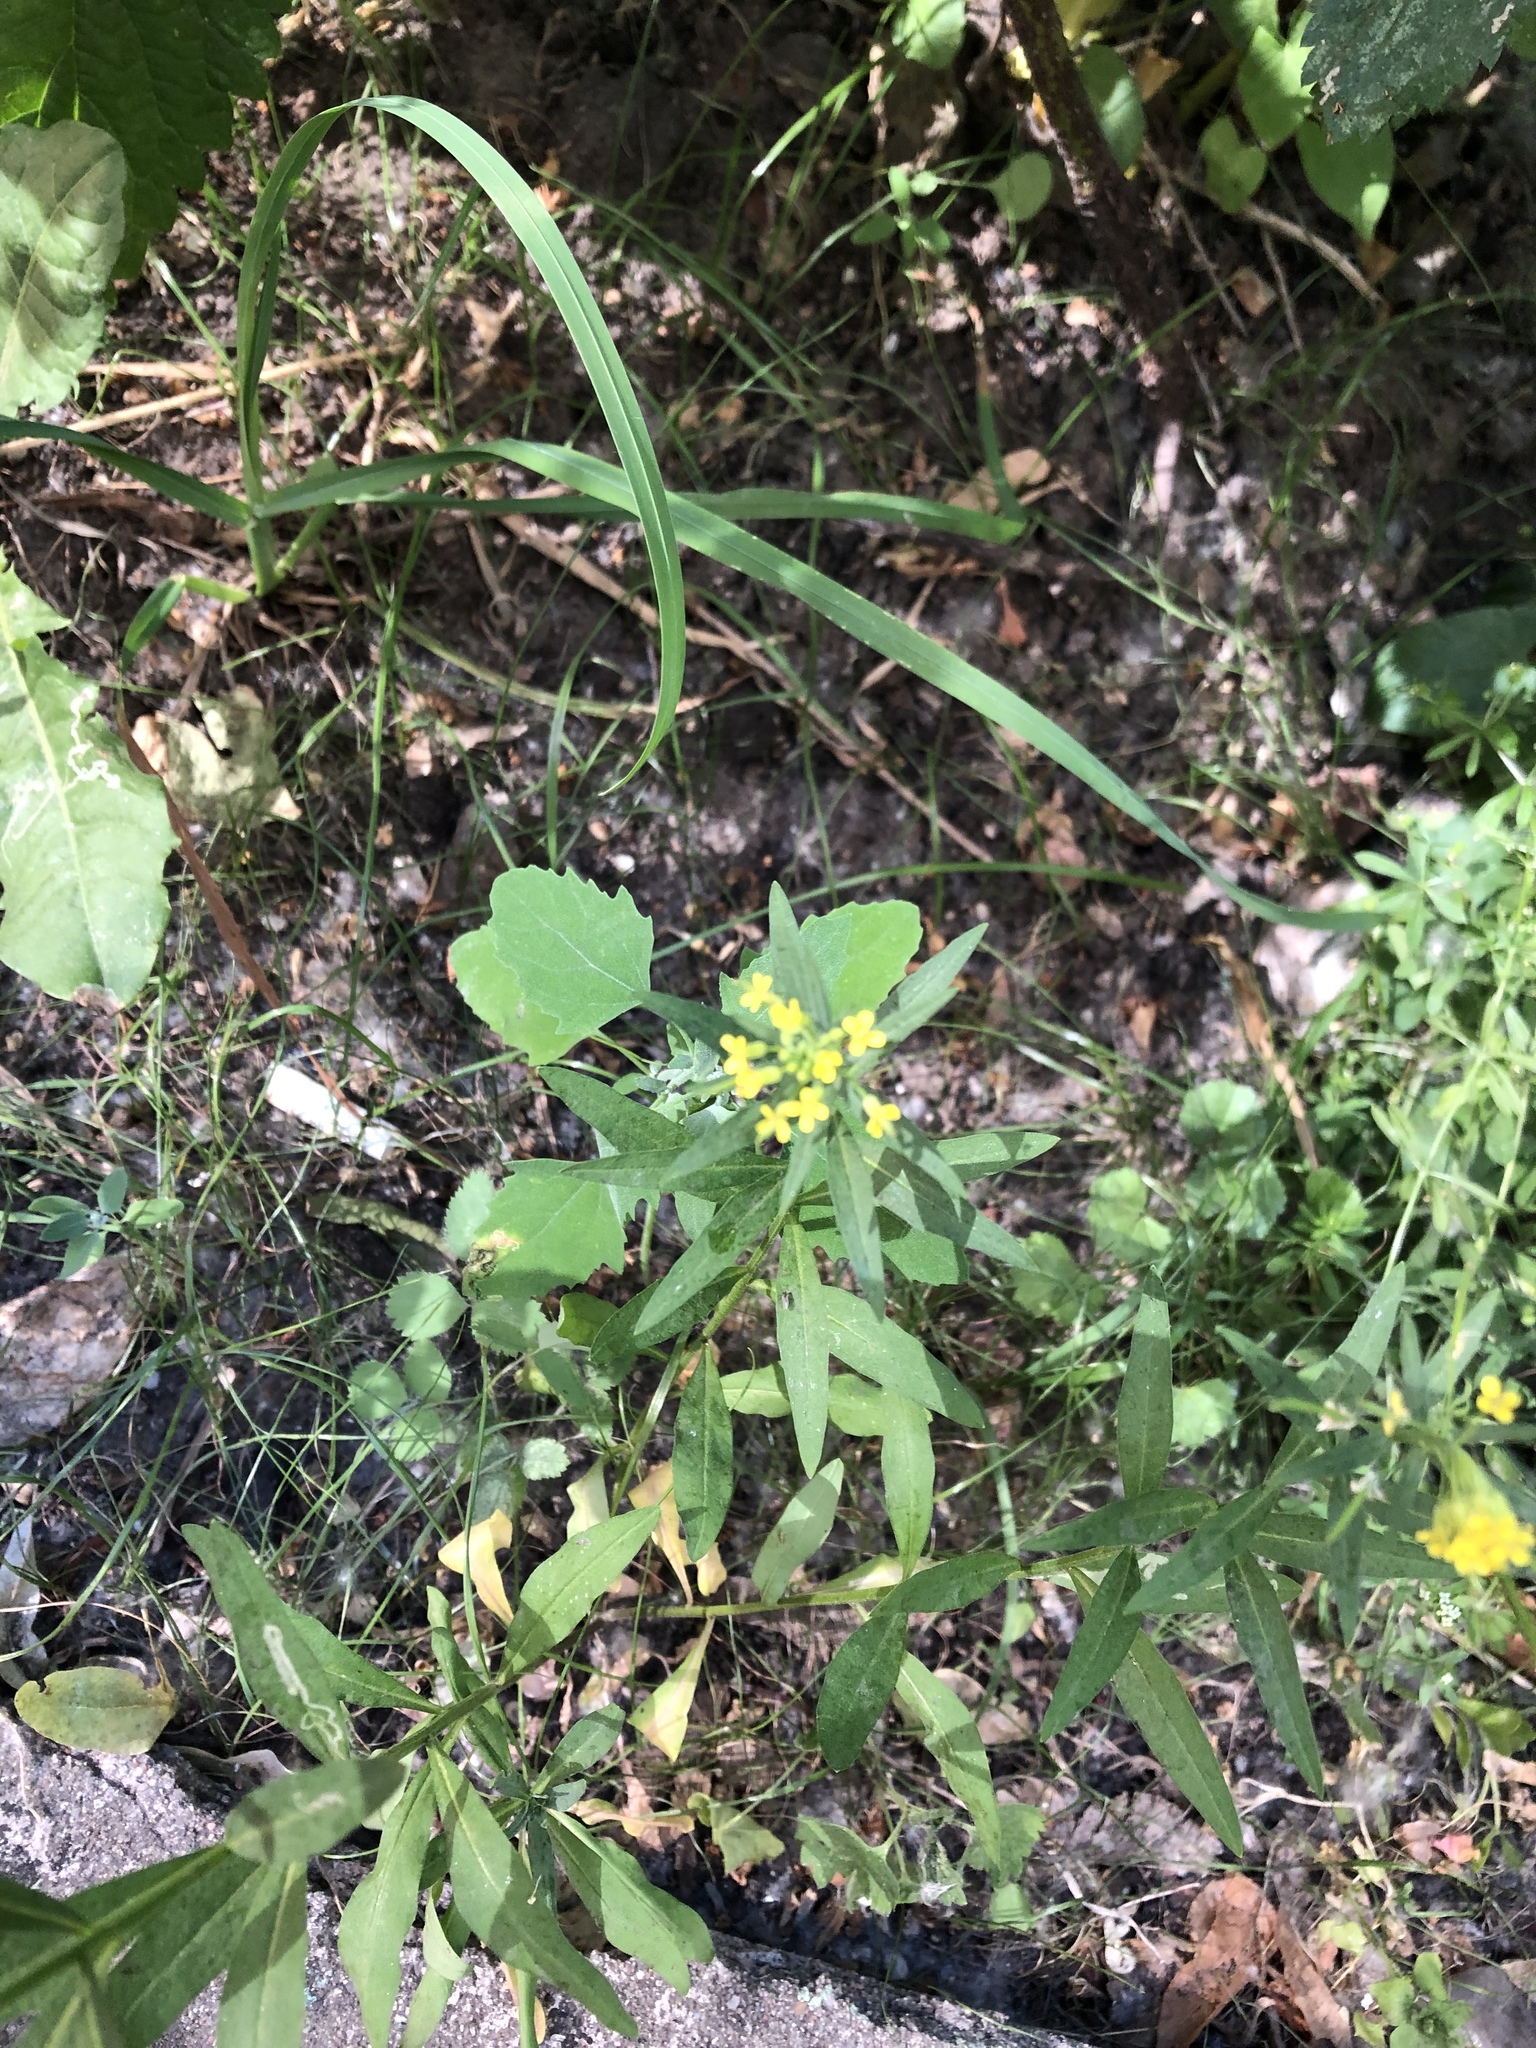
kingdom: Plantae
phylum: Tracheophyta
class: Magnoliopsida
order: Brassicales
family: Brassicaceae
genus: Erysimum
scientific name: Erysimum cheiranthoides
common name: Treacle mustard
